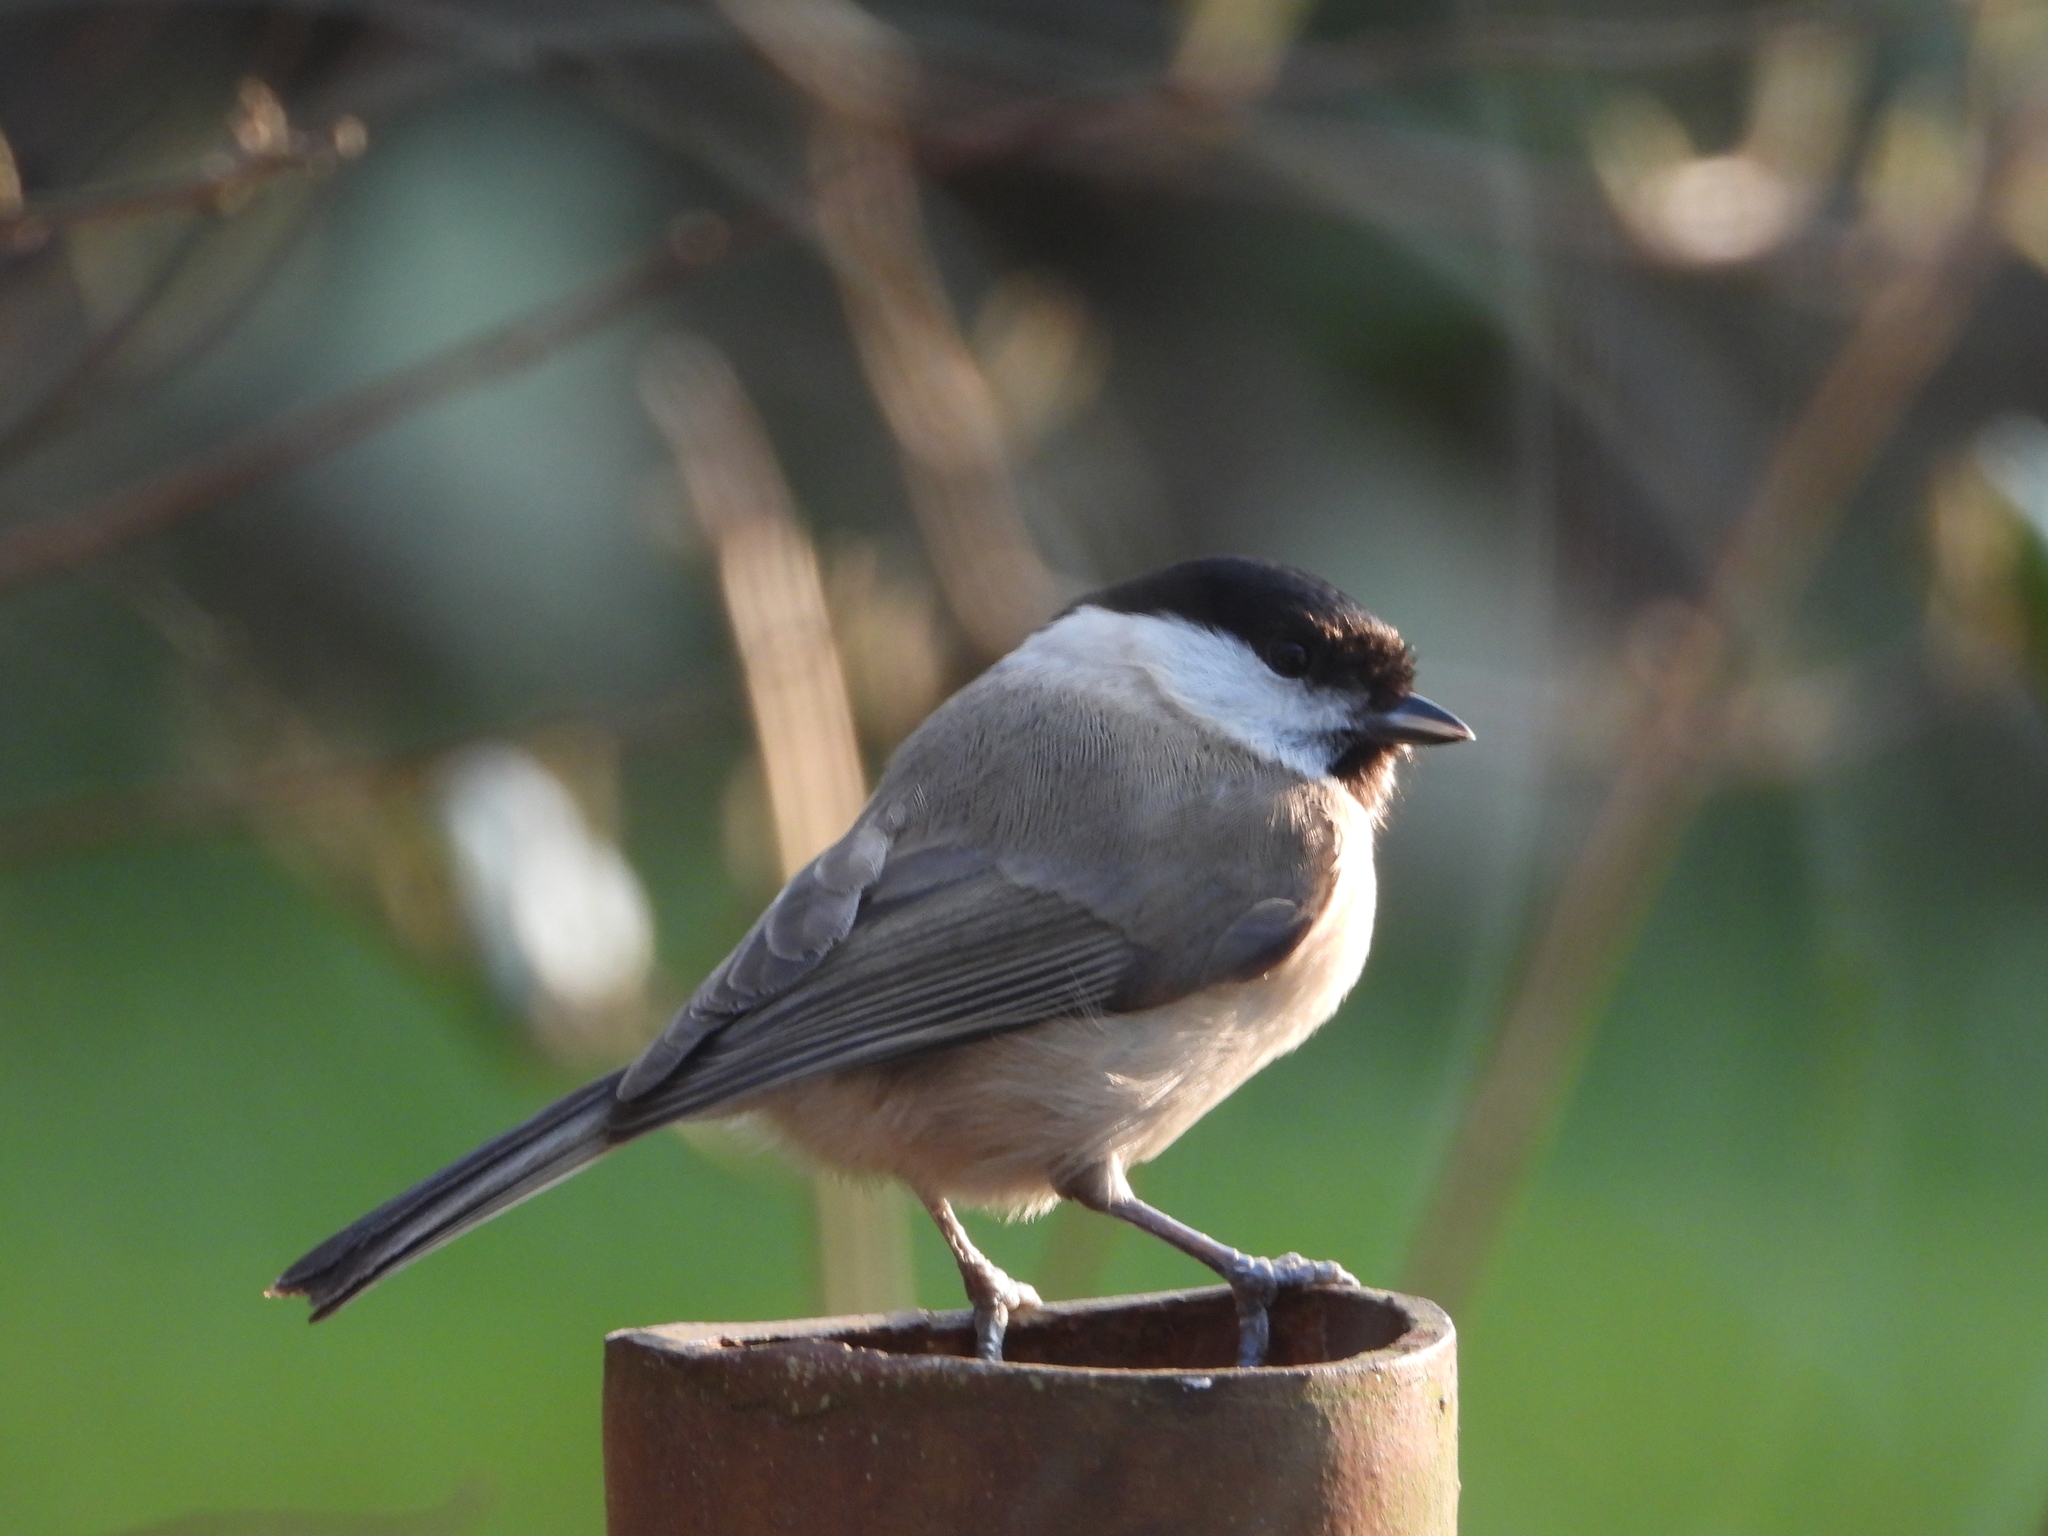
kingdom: Animalia
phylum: Chordata
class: Aves
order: Passeriformes
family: Paridae
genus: Poecile
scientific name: Poecile palustris
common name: Marsh tit
